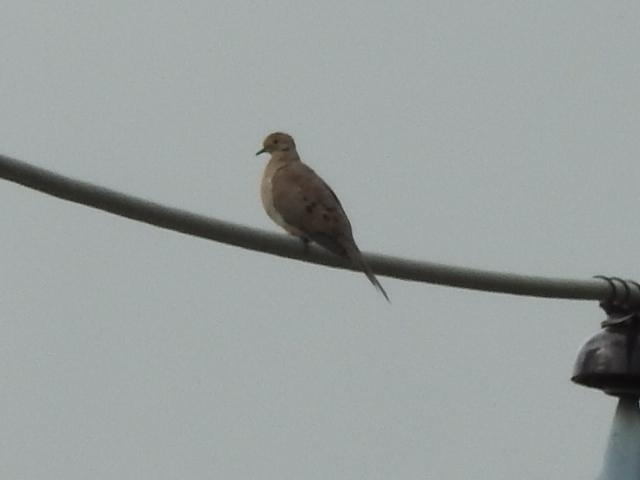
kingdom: Animalia
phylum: Chordata
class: Aves
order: Columbiformes
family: Columbidae
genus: Zenaida
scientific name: Zenaida macroura
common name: Mourning dove
